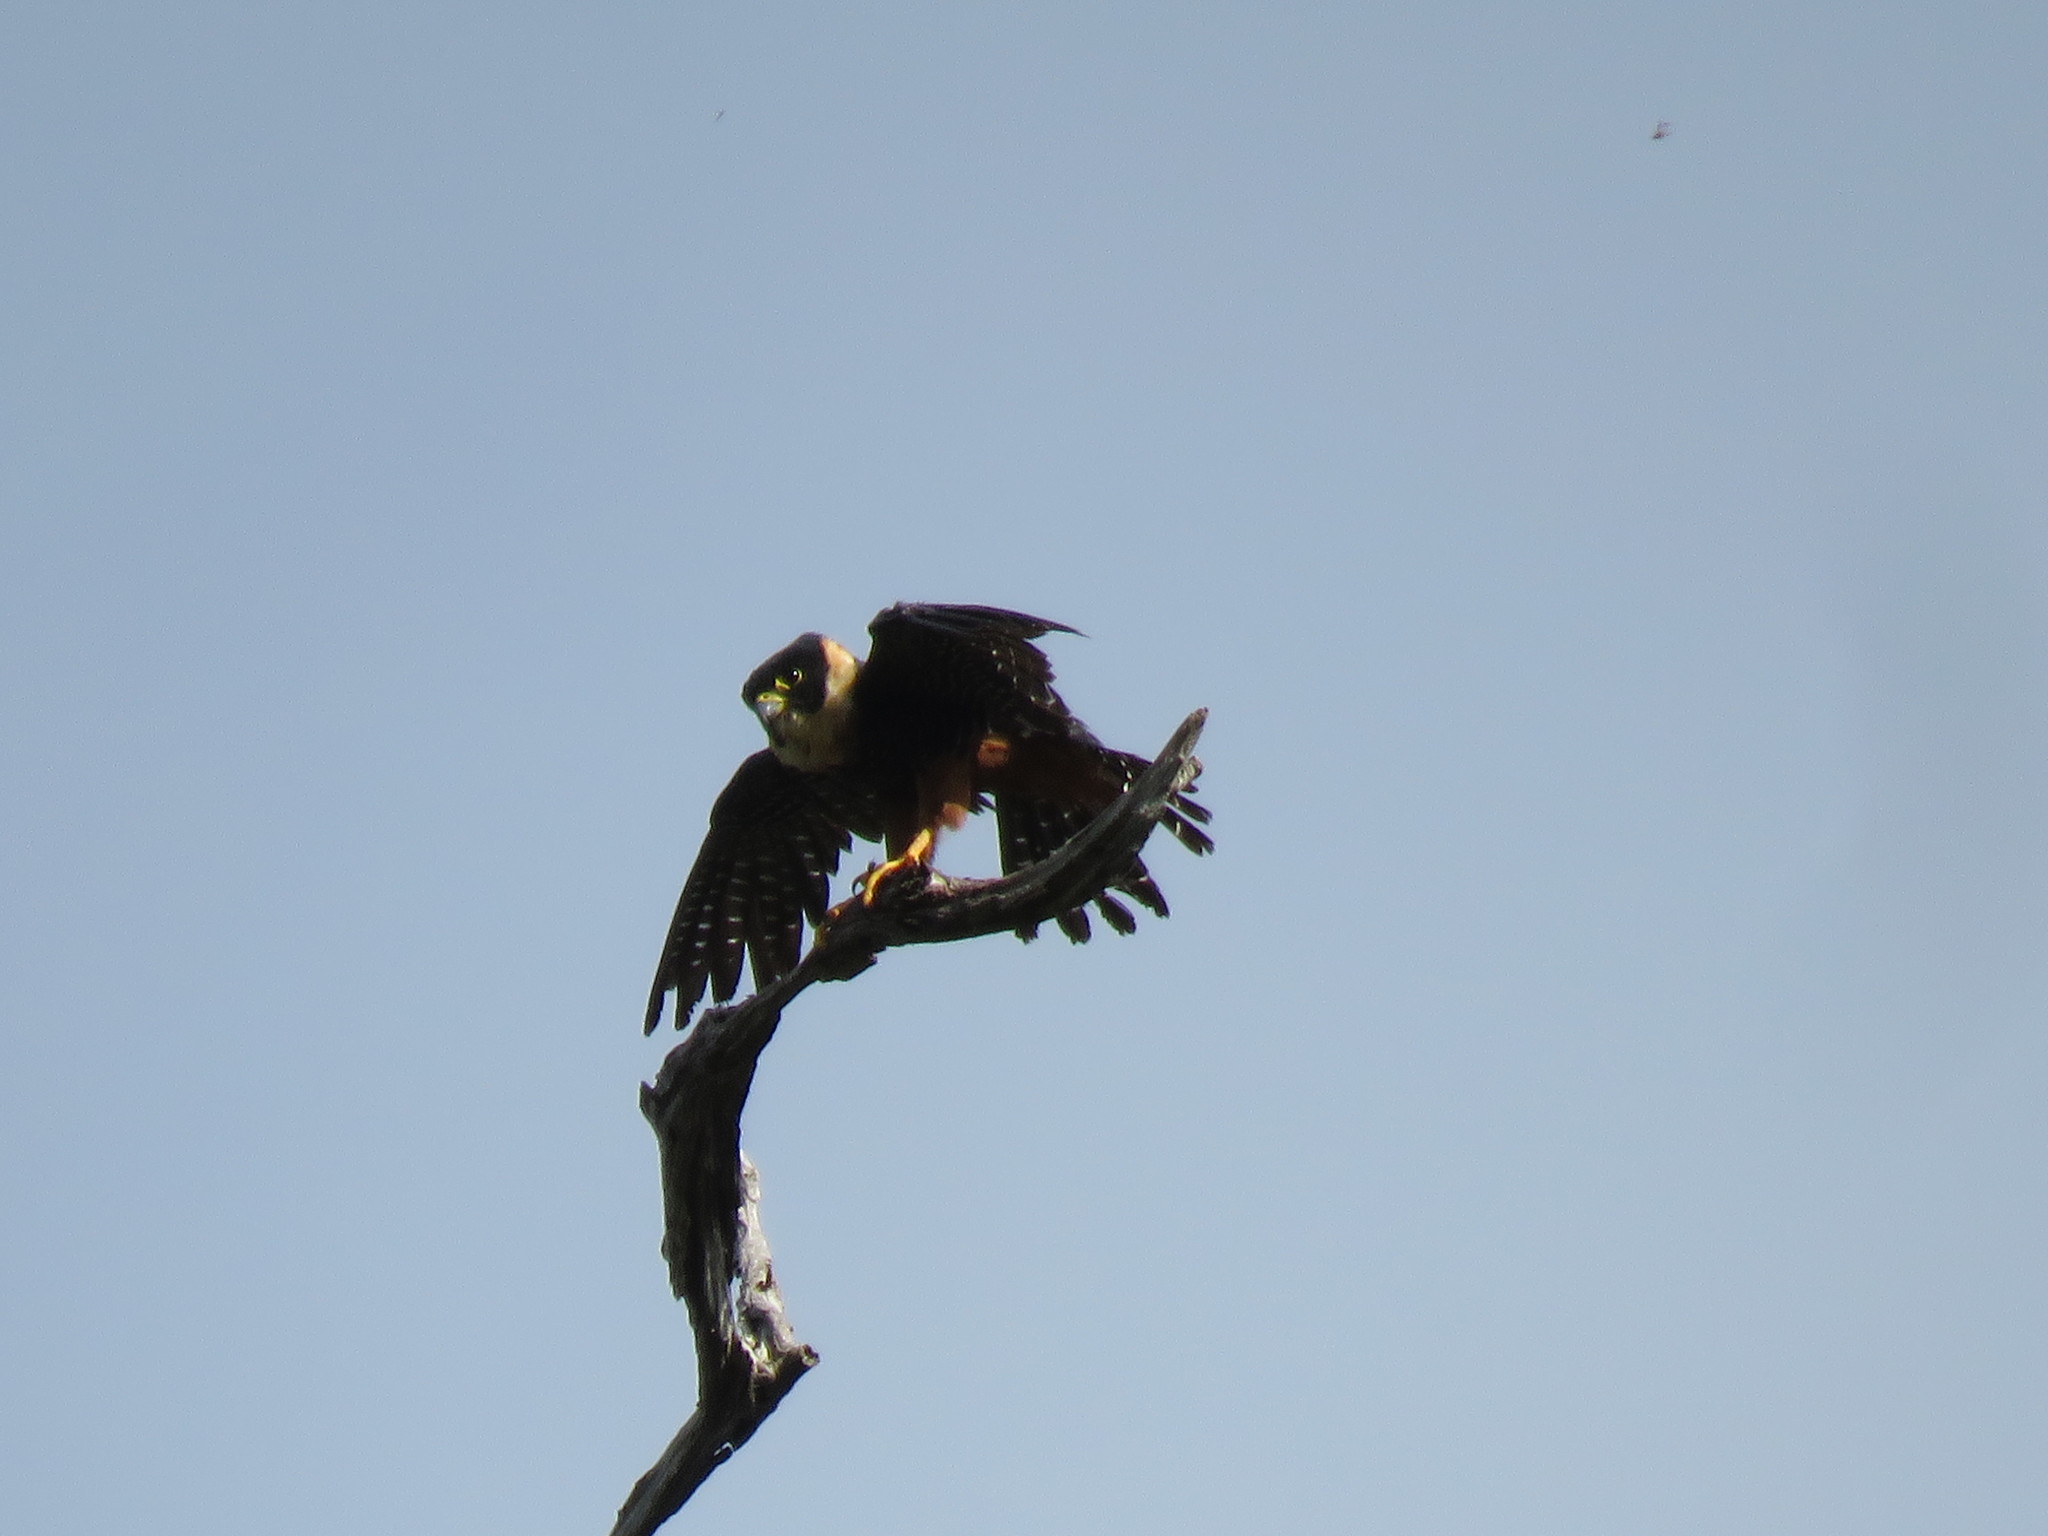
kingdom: Animalia
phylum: Chordata
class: Aves
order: Falconiformes
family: Falconidae
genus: Falco
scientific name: Falco rufigularis
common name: Bat falcon
